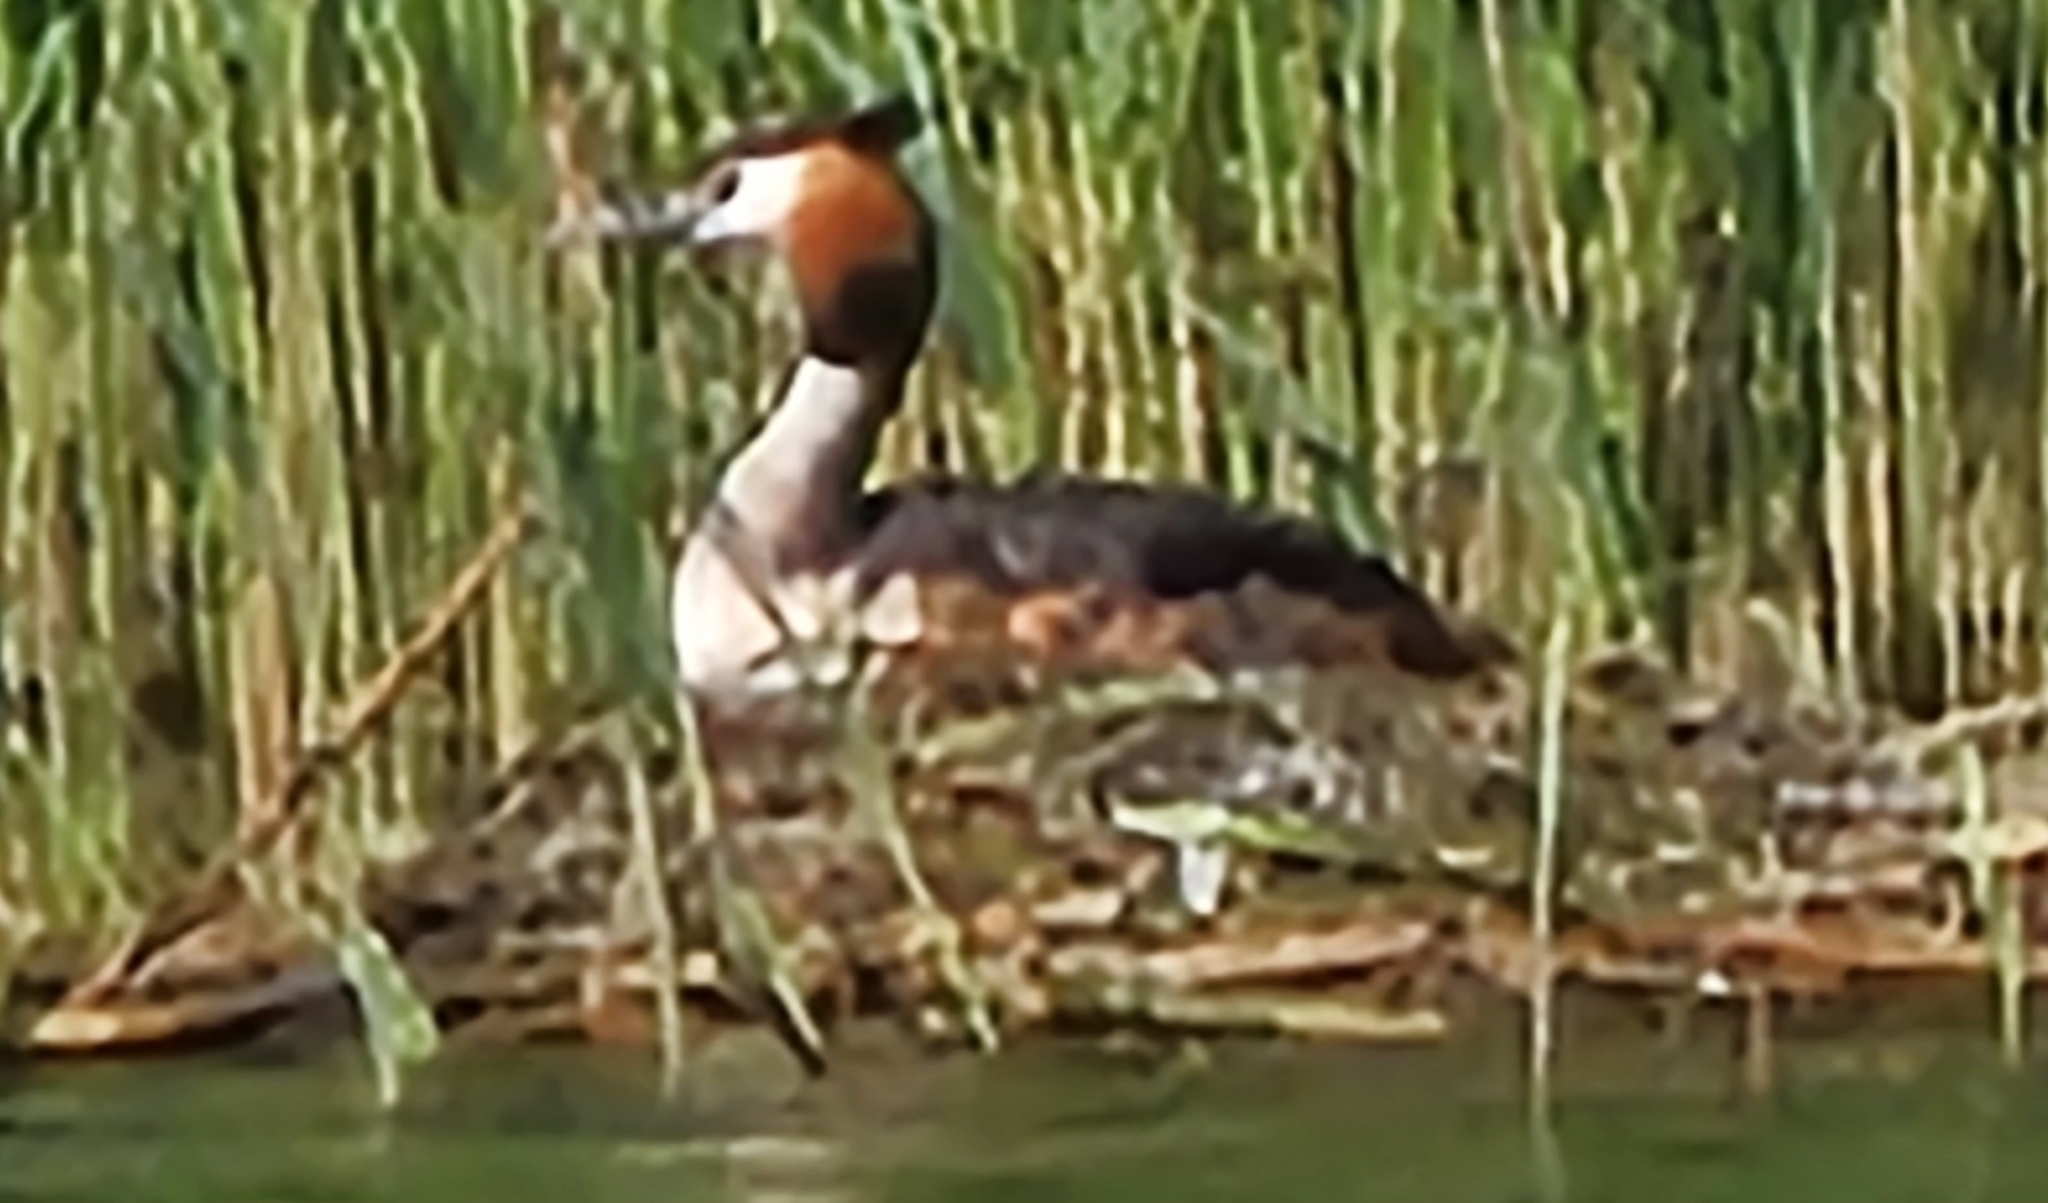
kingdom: Animalia
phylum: Chordata
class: Aves
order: Podicipediformes
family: Podicipedidae
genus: Podiceps
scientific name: Podiceps cristatus
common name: Great crested grebe
